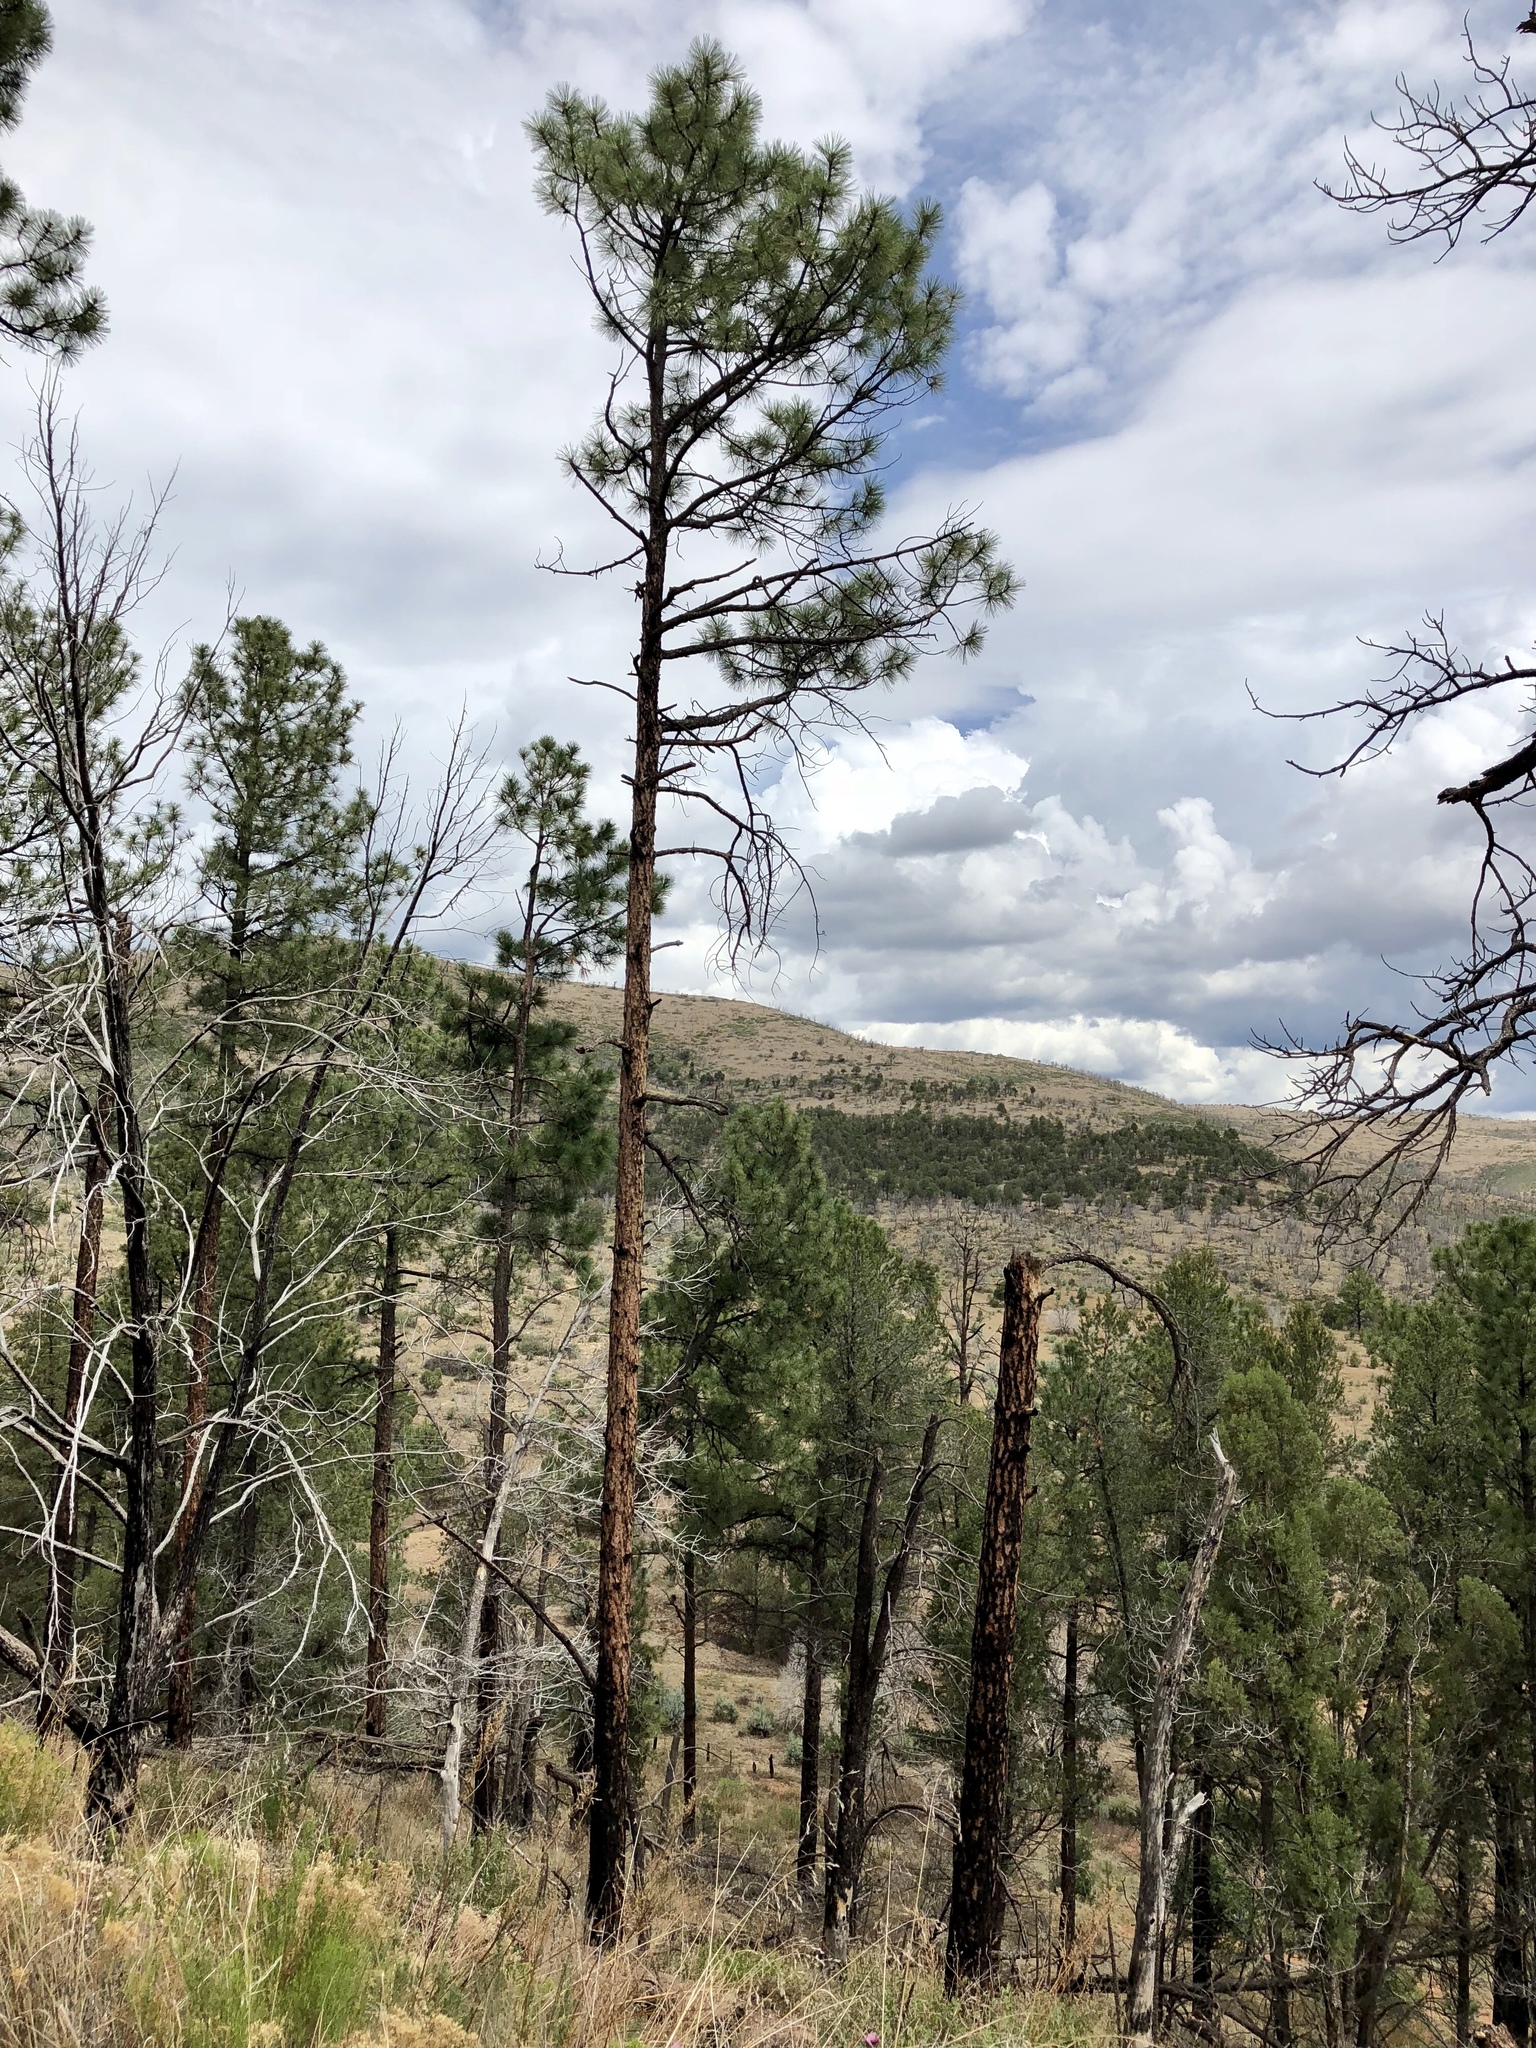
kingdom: Plantae
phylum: Tracheophyta
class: Pinopsida
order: Pinales
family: Pinaceae
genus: Pinus
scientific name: Pinus ponderosa
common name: Western yellow-pine
